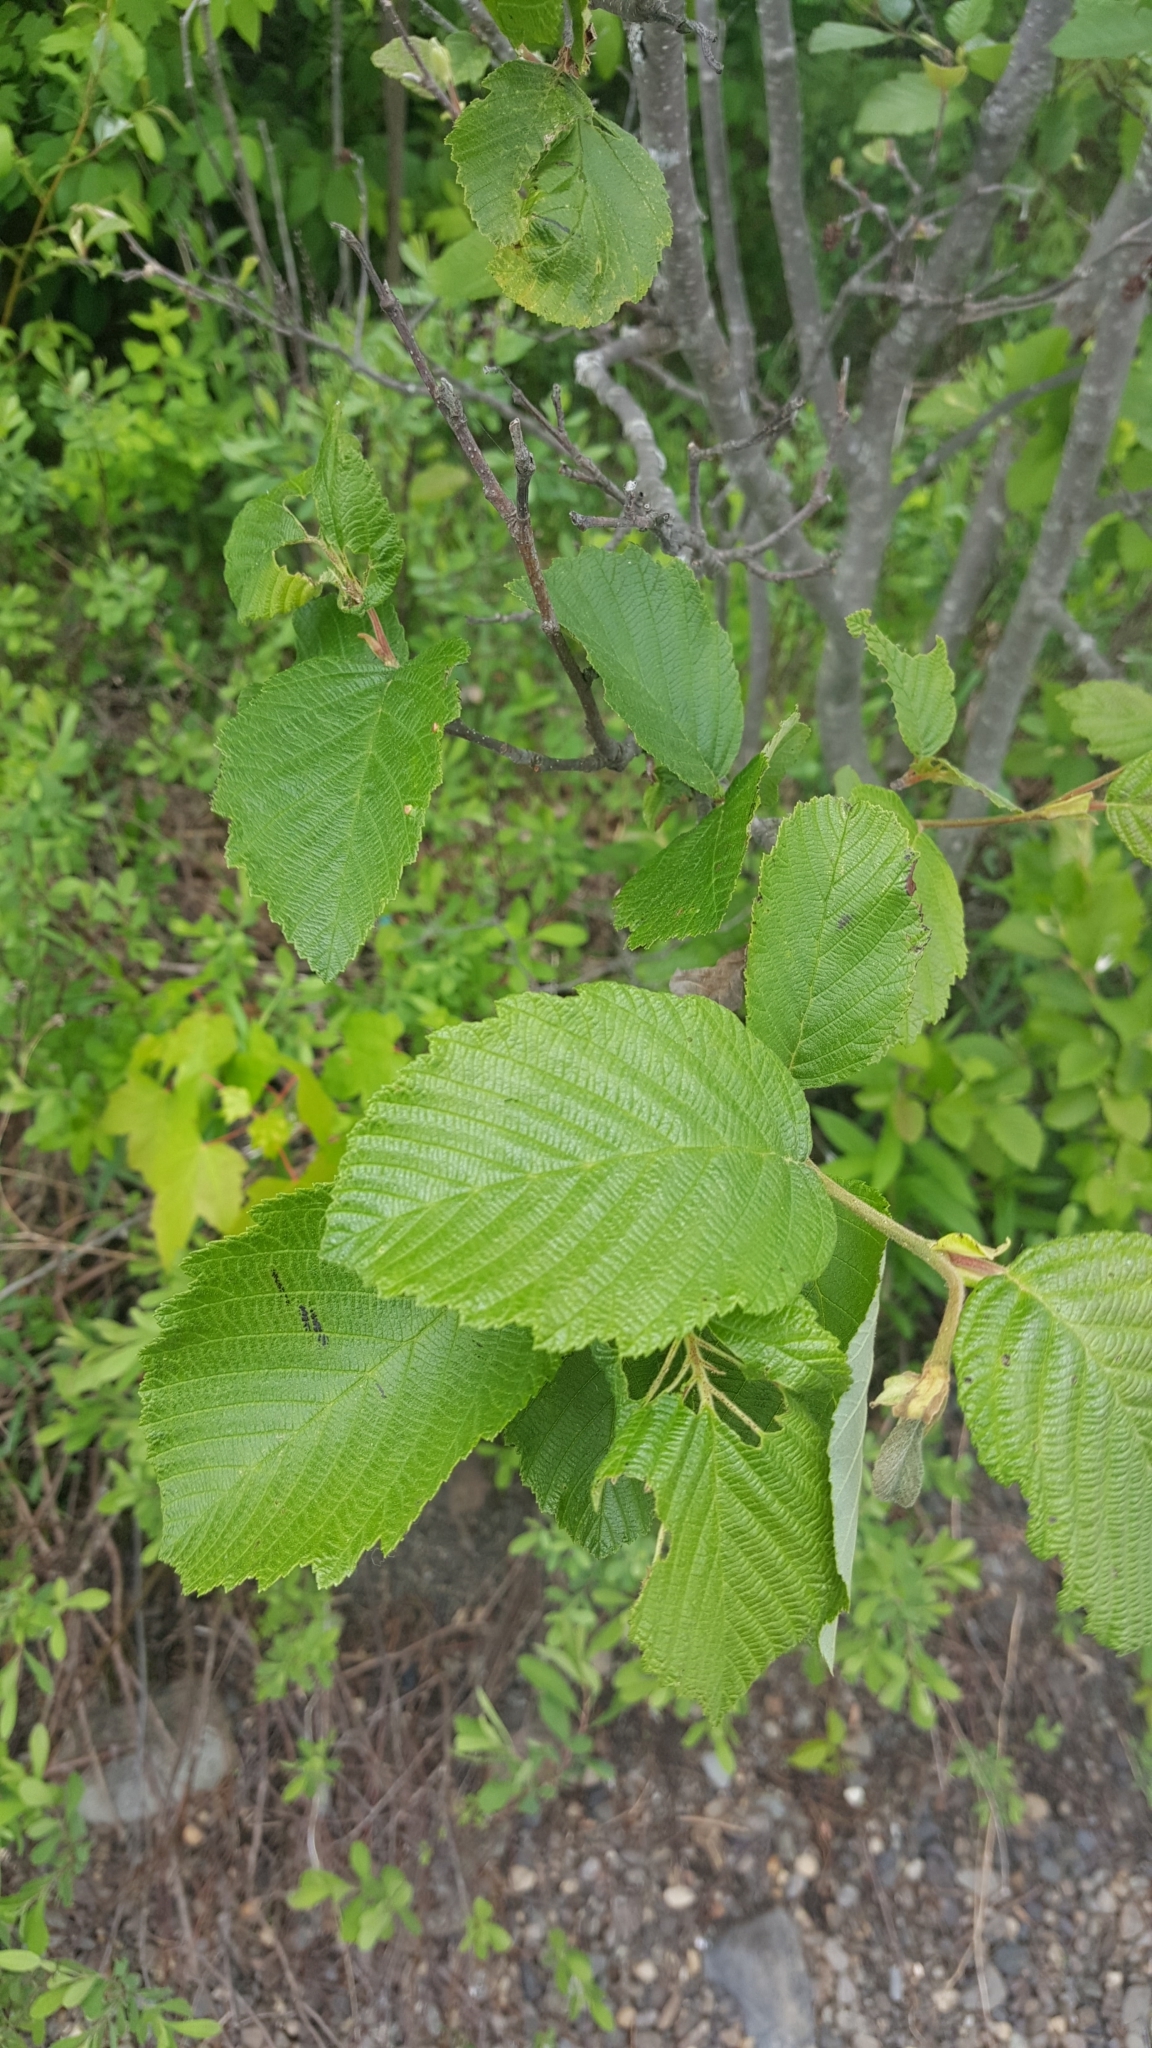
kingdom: Plantae
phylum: Tracheophyta
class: Magnoliopsida
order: Fagales
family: Betulaceae
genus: Alnus
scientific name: Alnus incana
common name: Grey alder
